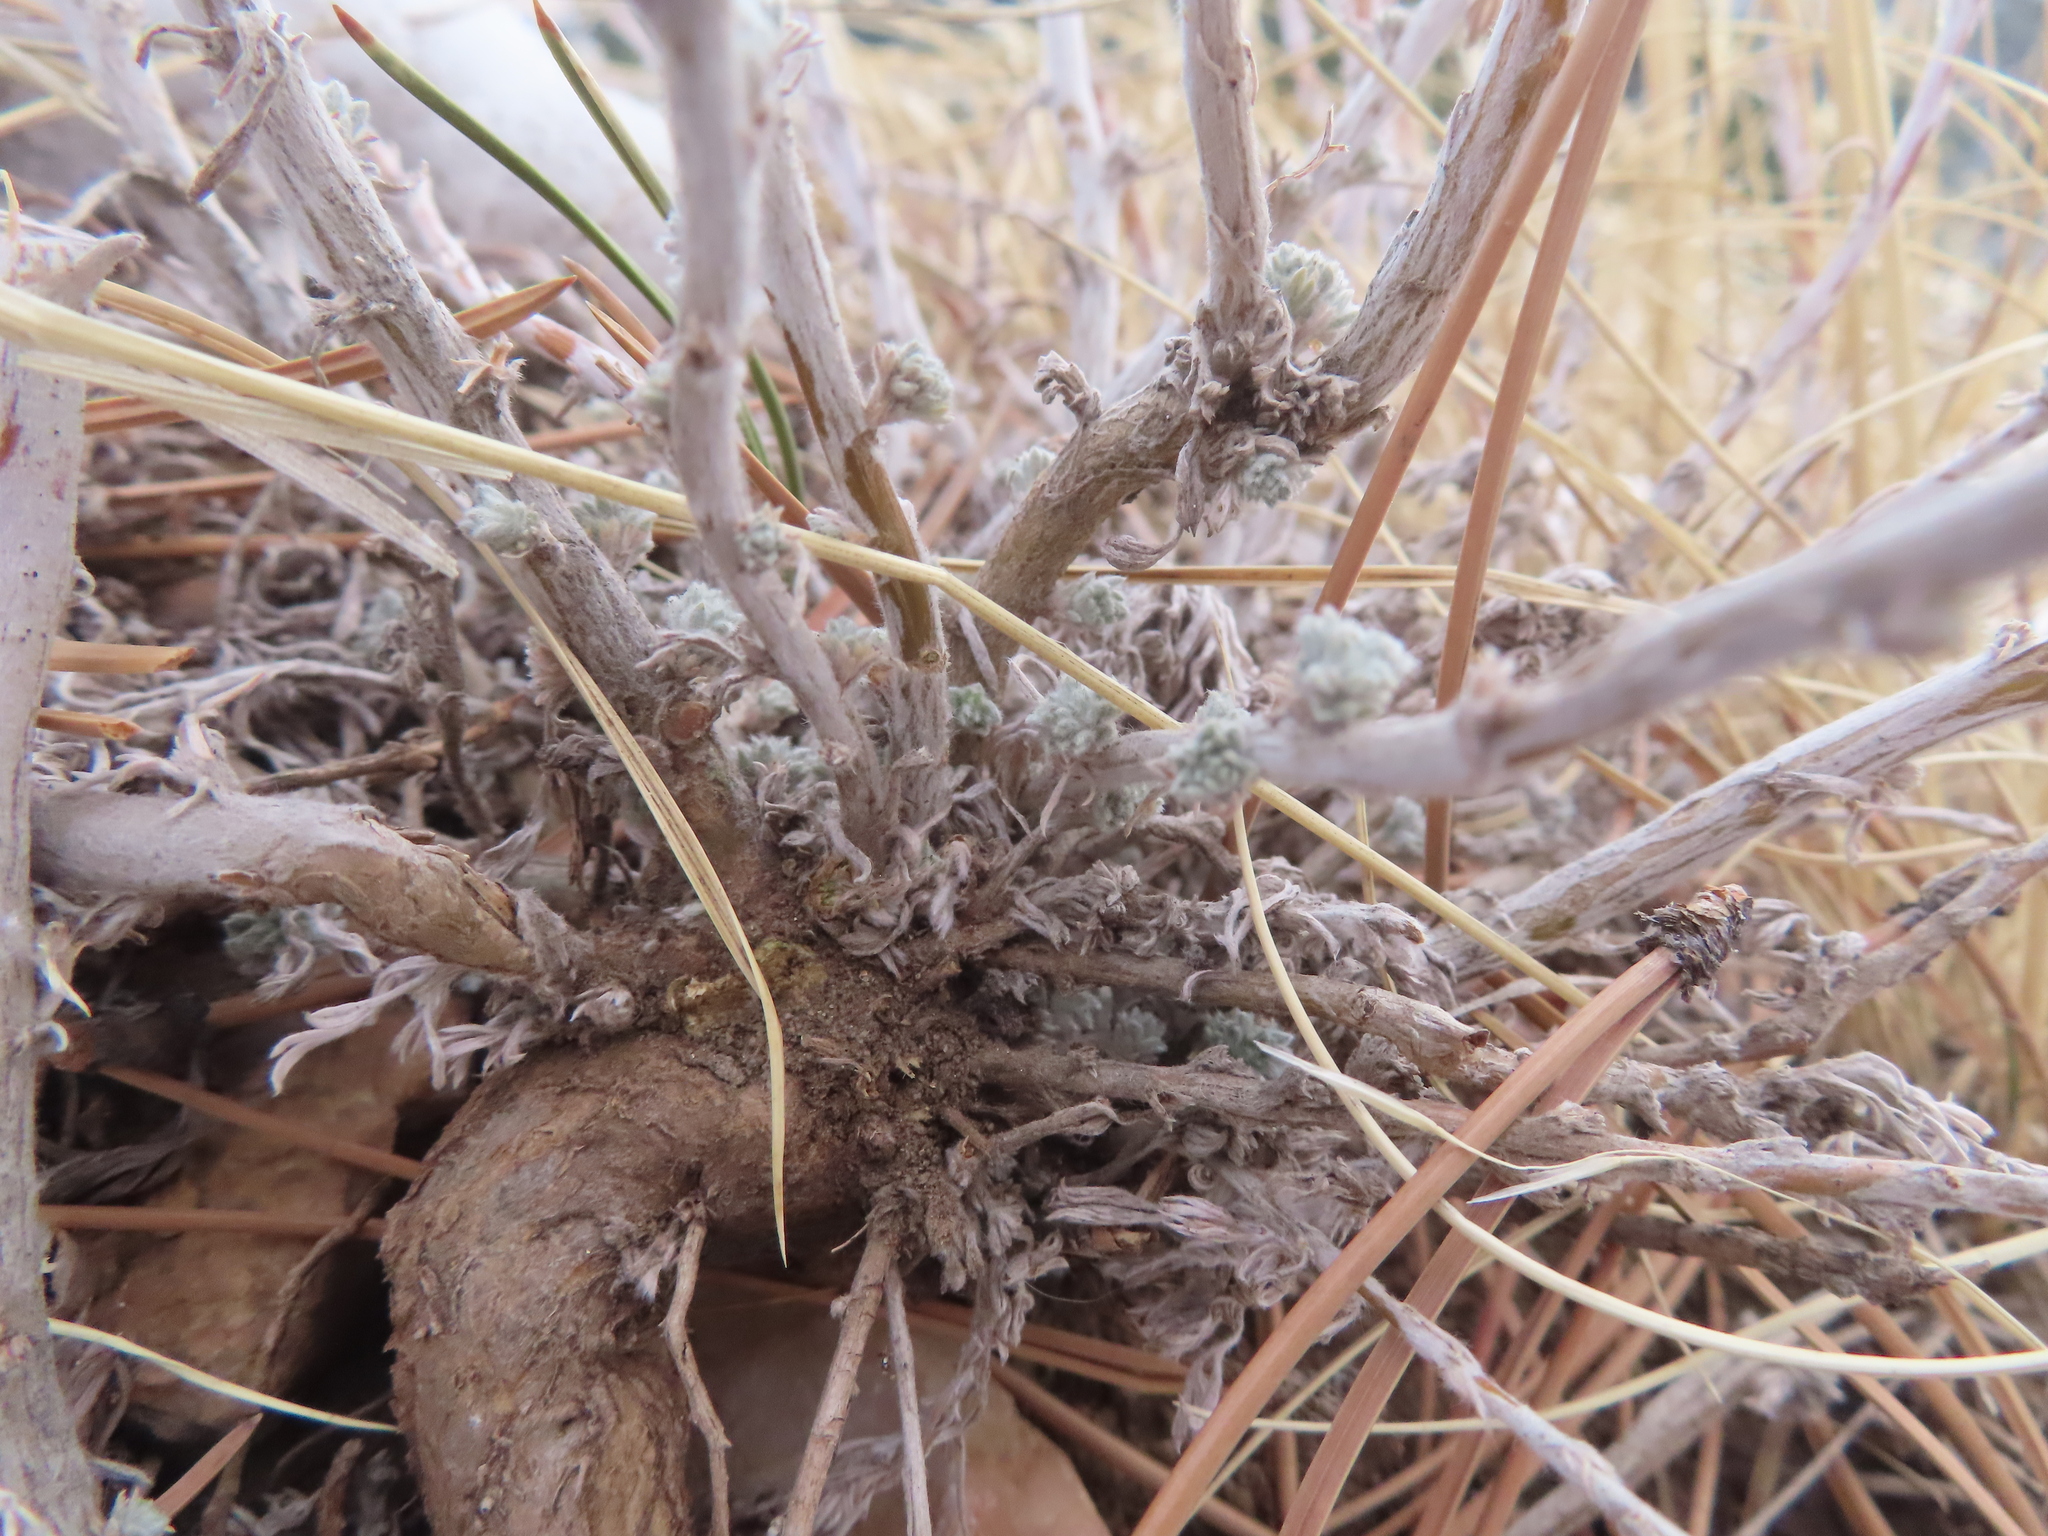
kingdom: Plantae
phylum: Tracheophyta
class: Magnoliopsida
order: Asterales
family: Asteraceae
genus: Artemisia
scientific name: Artemisia frigida
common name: Prairie sagewort
